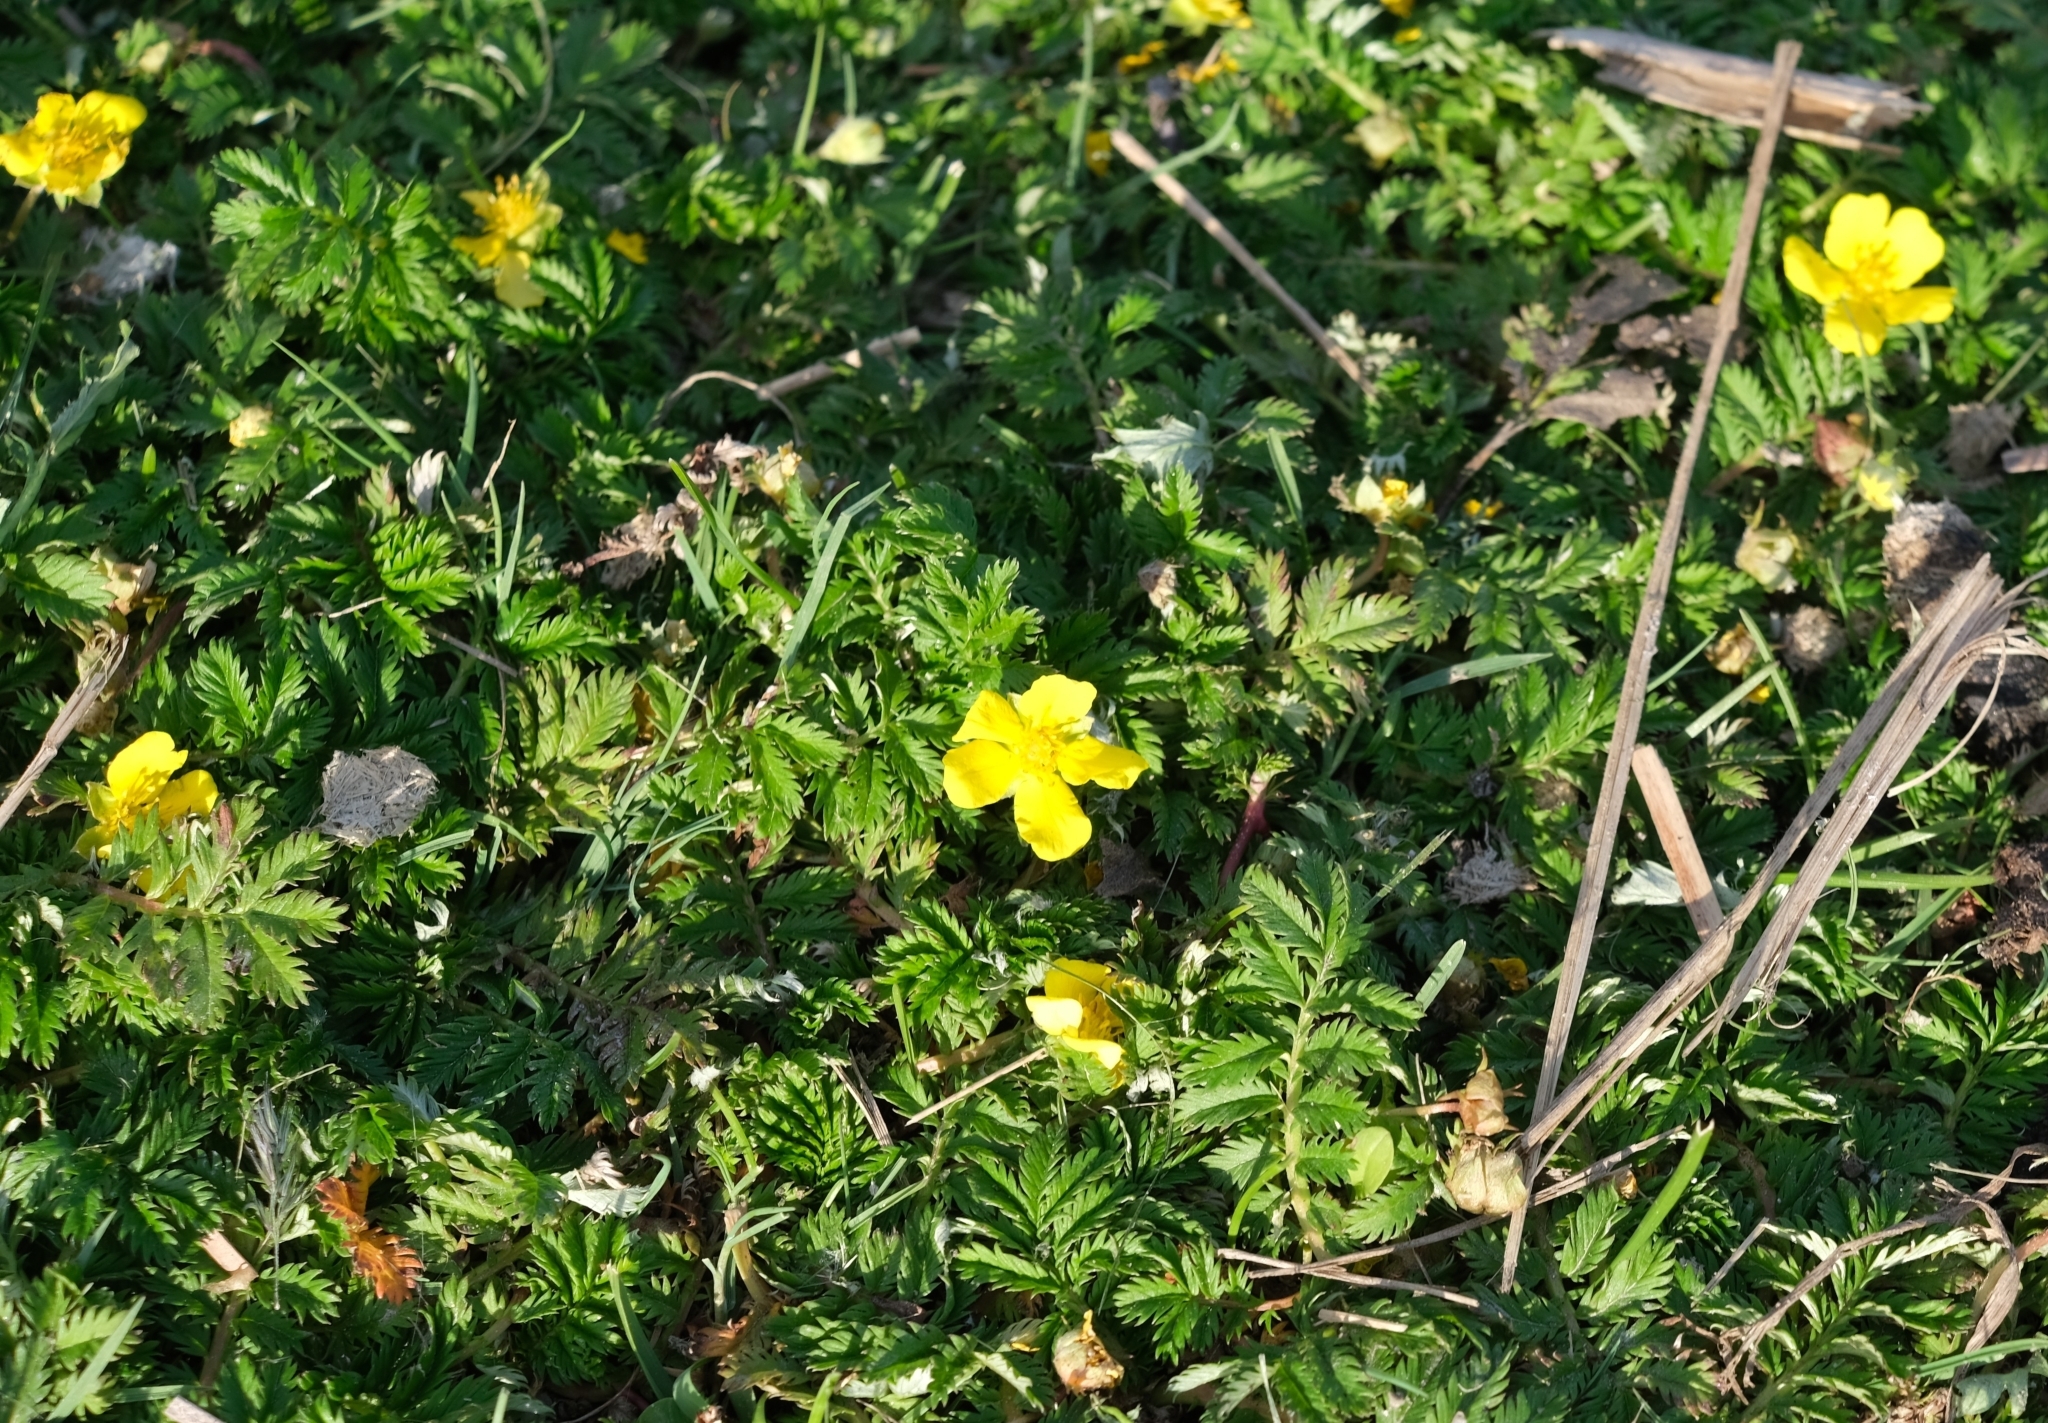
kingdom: Plantae
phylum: Tracheophyta
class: Magnoliopsida
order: Rosales
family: Rosaceae
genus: Argentina
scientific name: Argentina anserina
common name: Common silverweed
